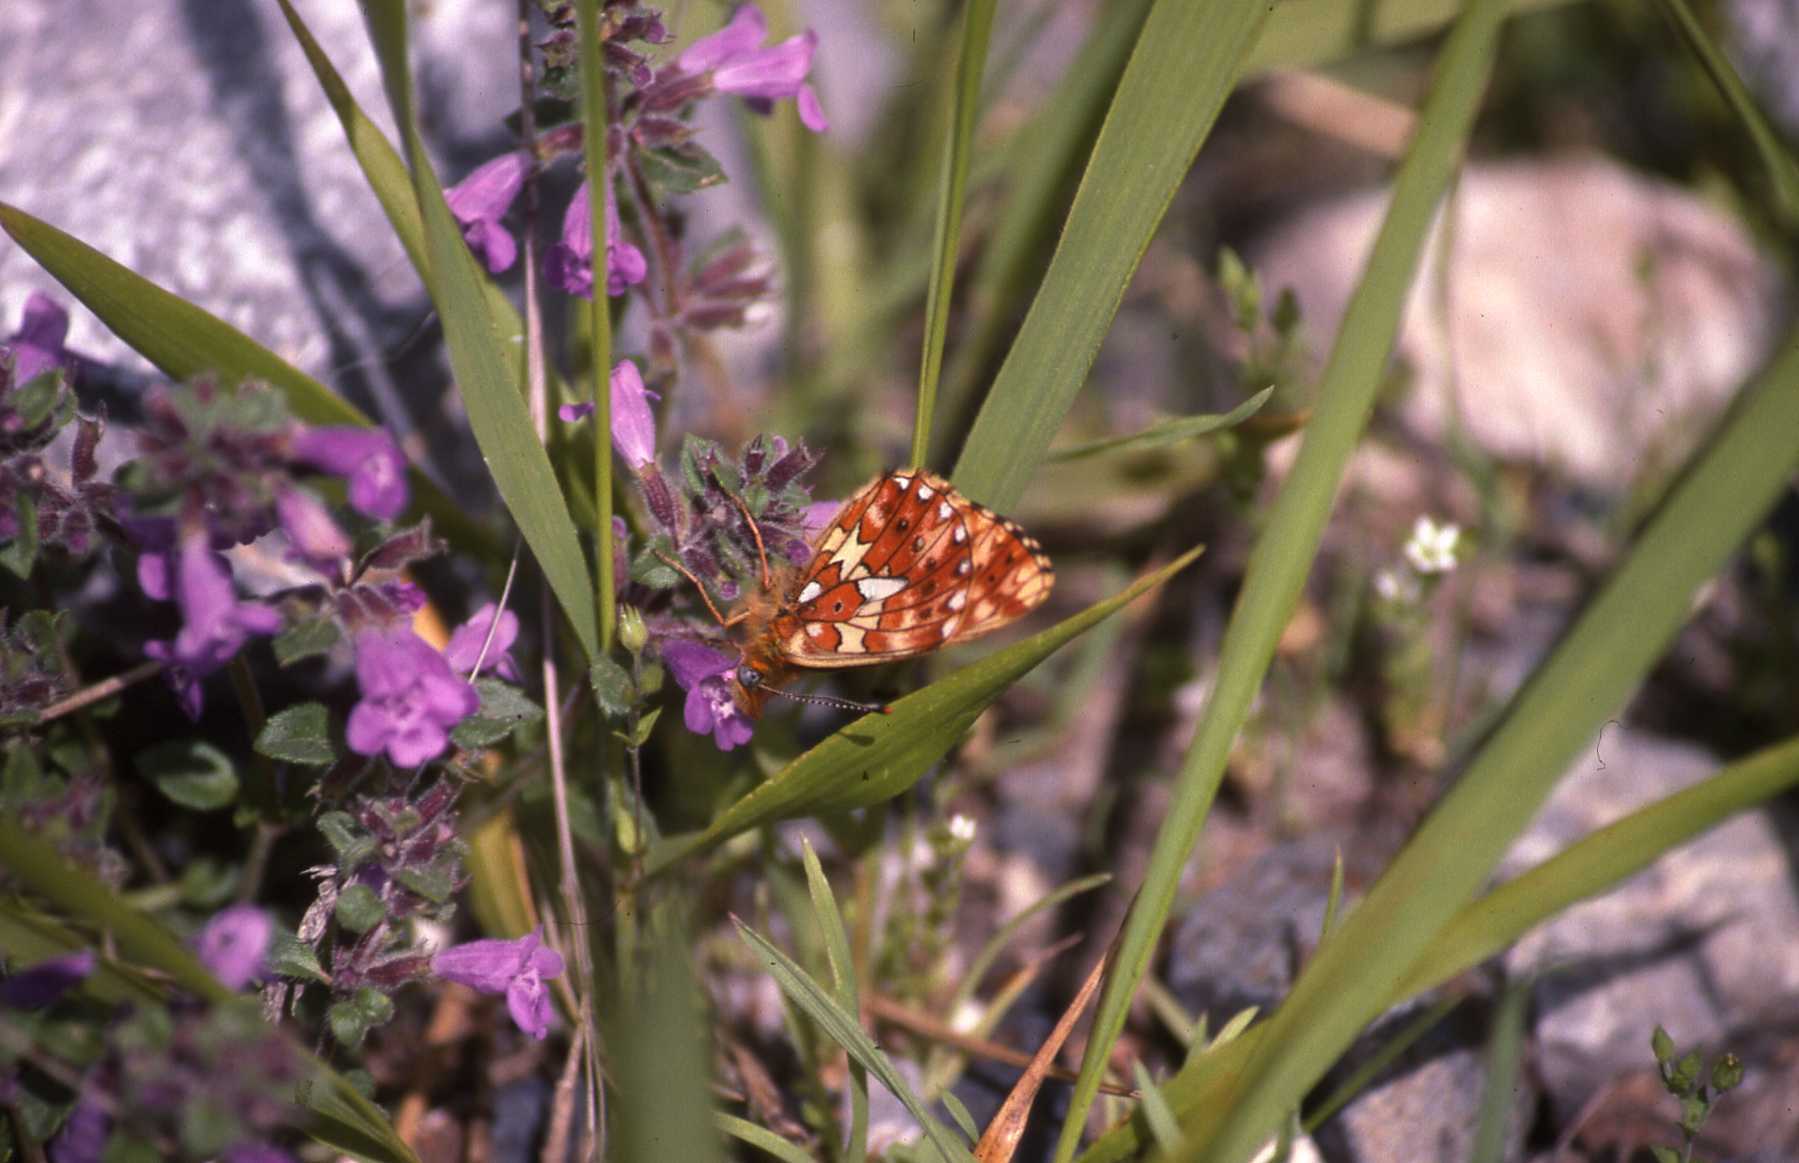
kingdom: Animalia
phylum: Arthropoda
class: Insecta
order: Lepidoptera
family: Nymphalidae
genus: Clossiana
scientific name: Clossiana euphrosyne
